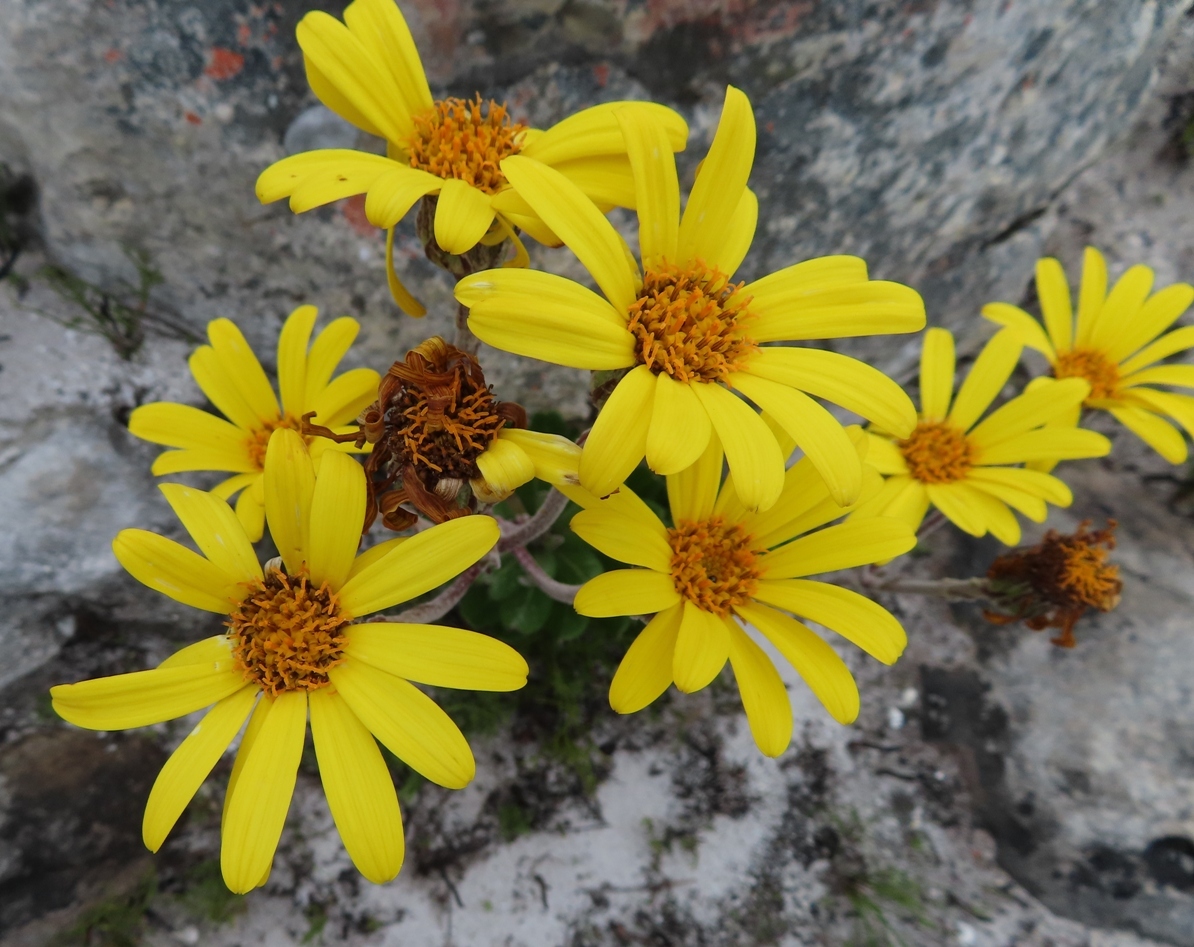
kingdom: Plantae
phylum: Tracheophyta
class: Magnoliopsida
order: Asterales
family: Asteraceae
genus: Capelio
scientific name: Capelio caledonica
